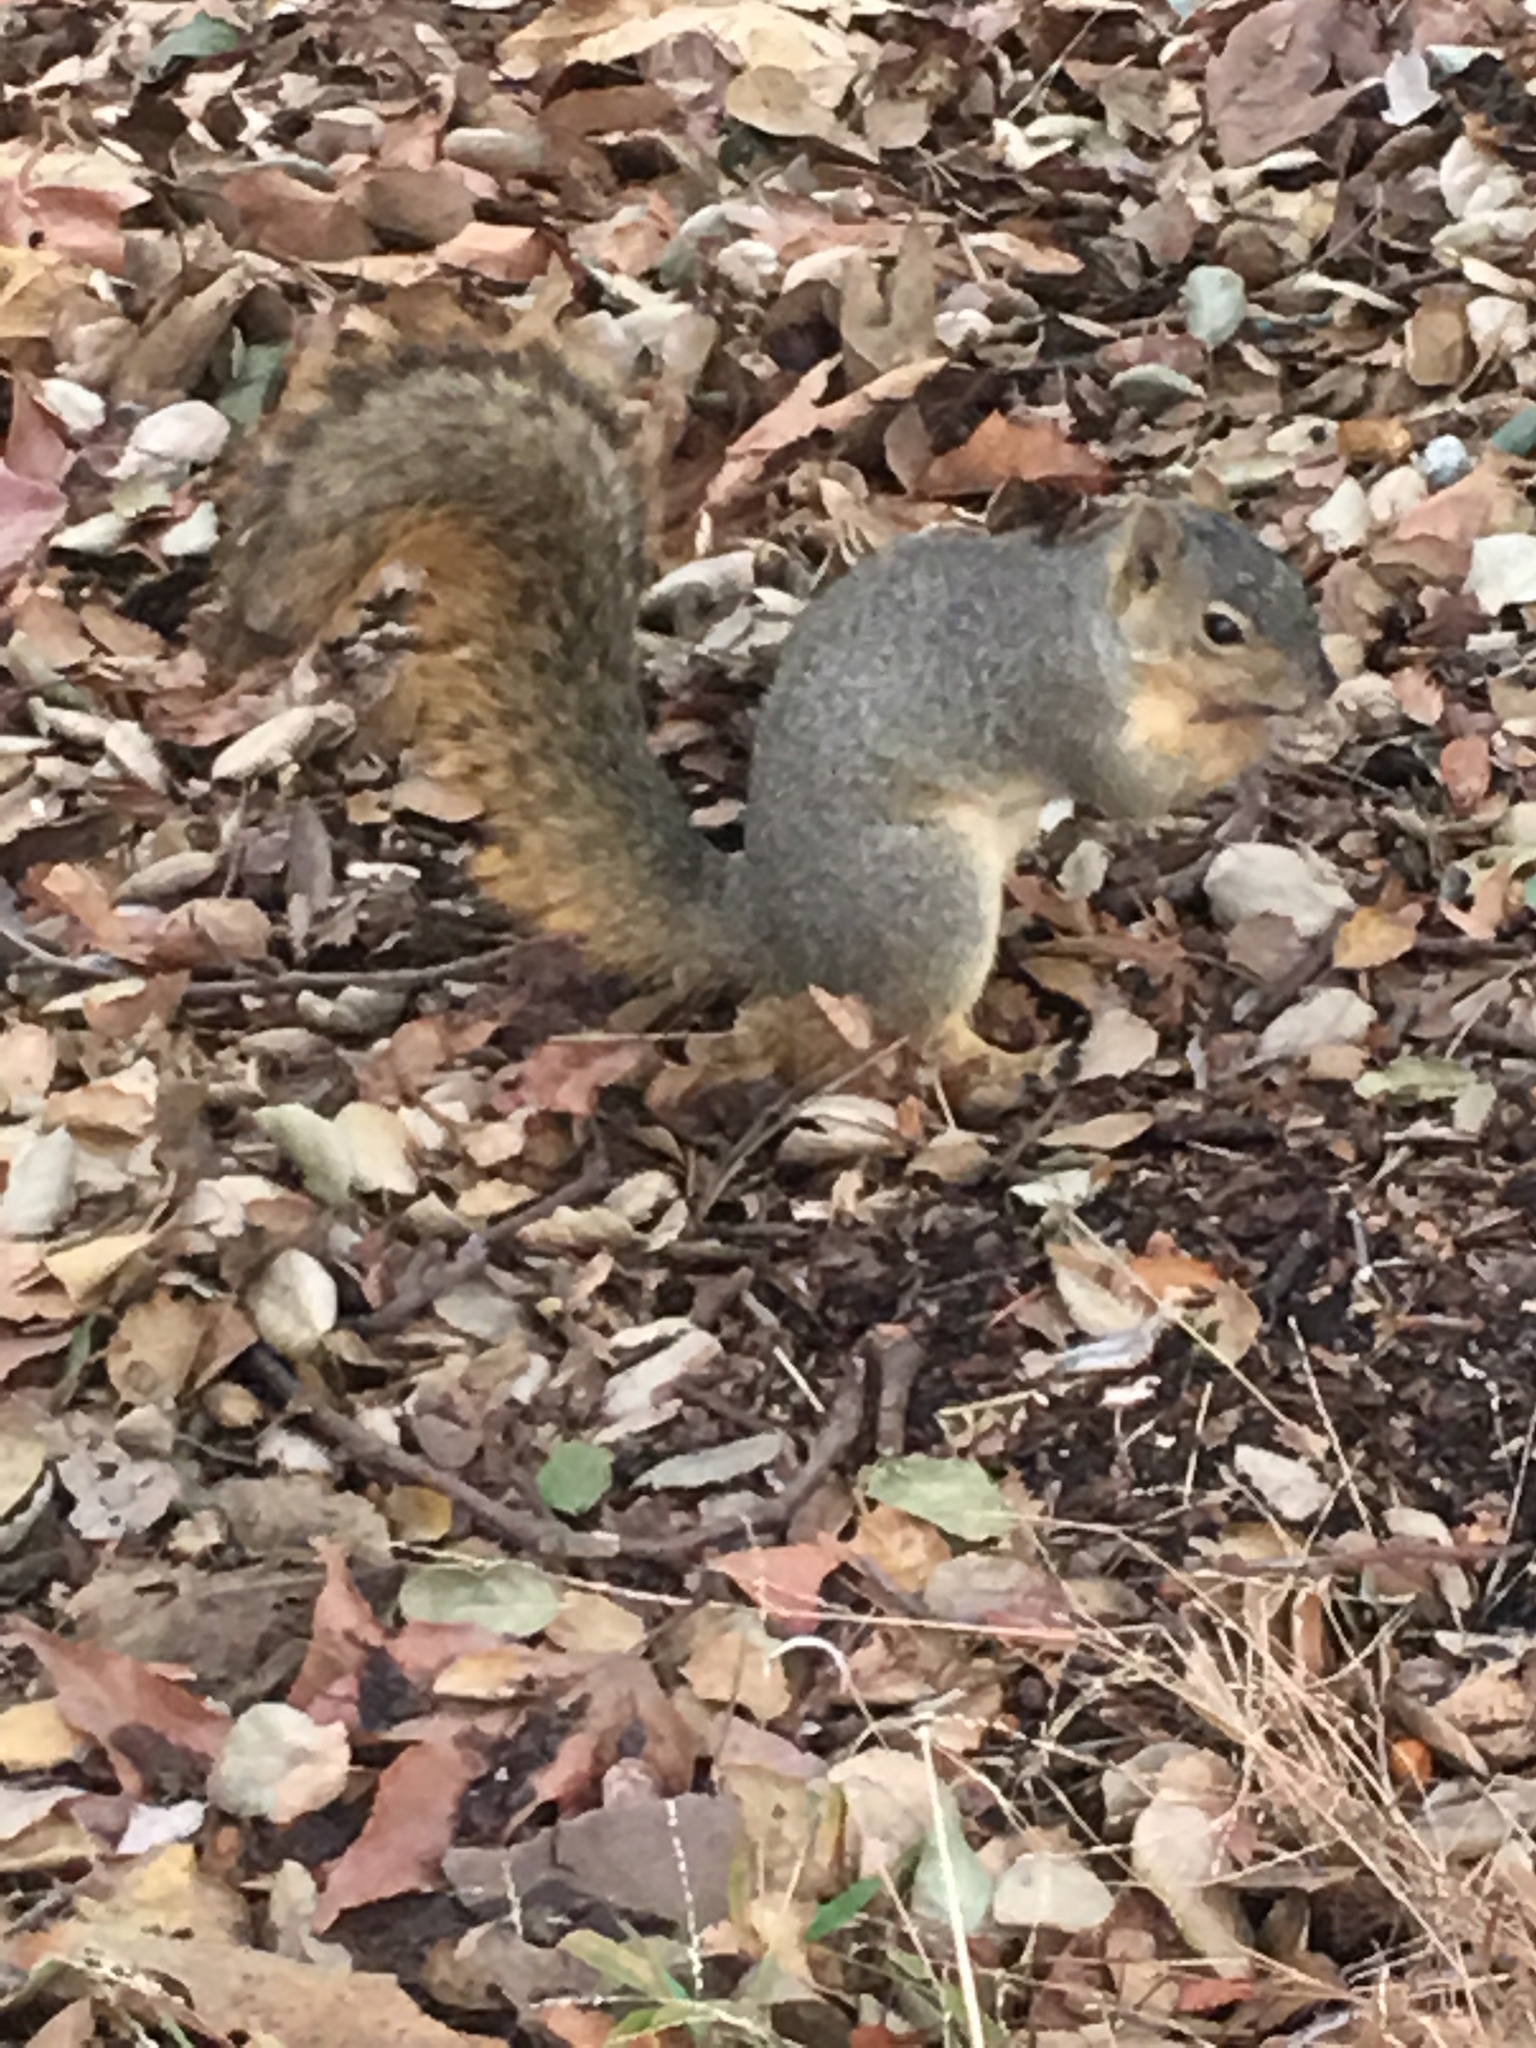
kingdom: Animalia
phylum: Chordata
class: Mammalia
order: Rodentia
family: Sciuridae
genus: Sciurus
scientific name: Sciurus niger
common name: Fox squirrel
